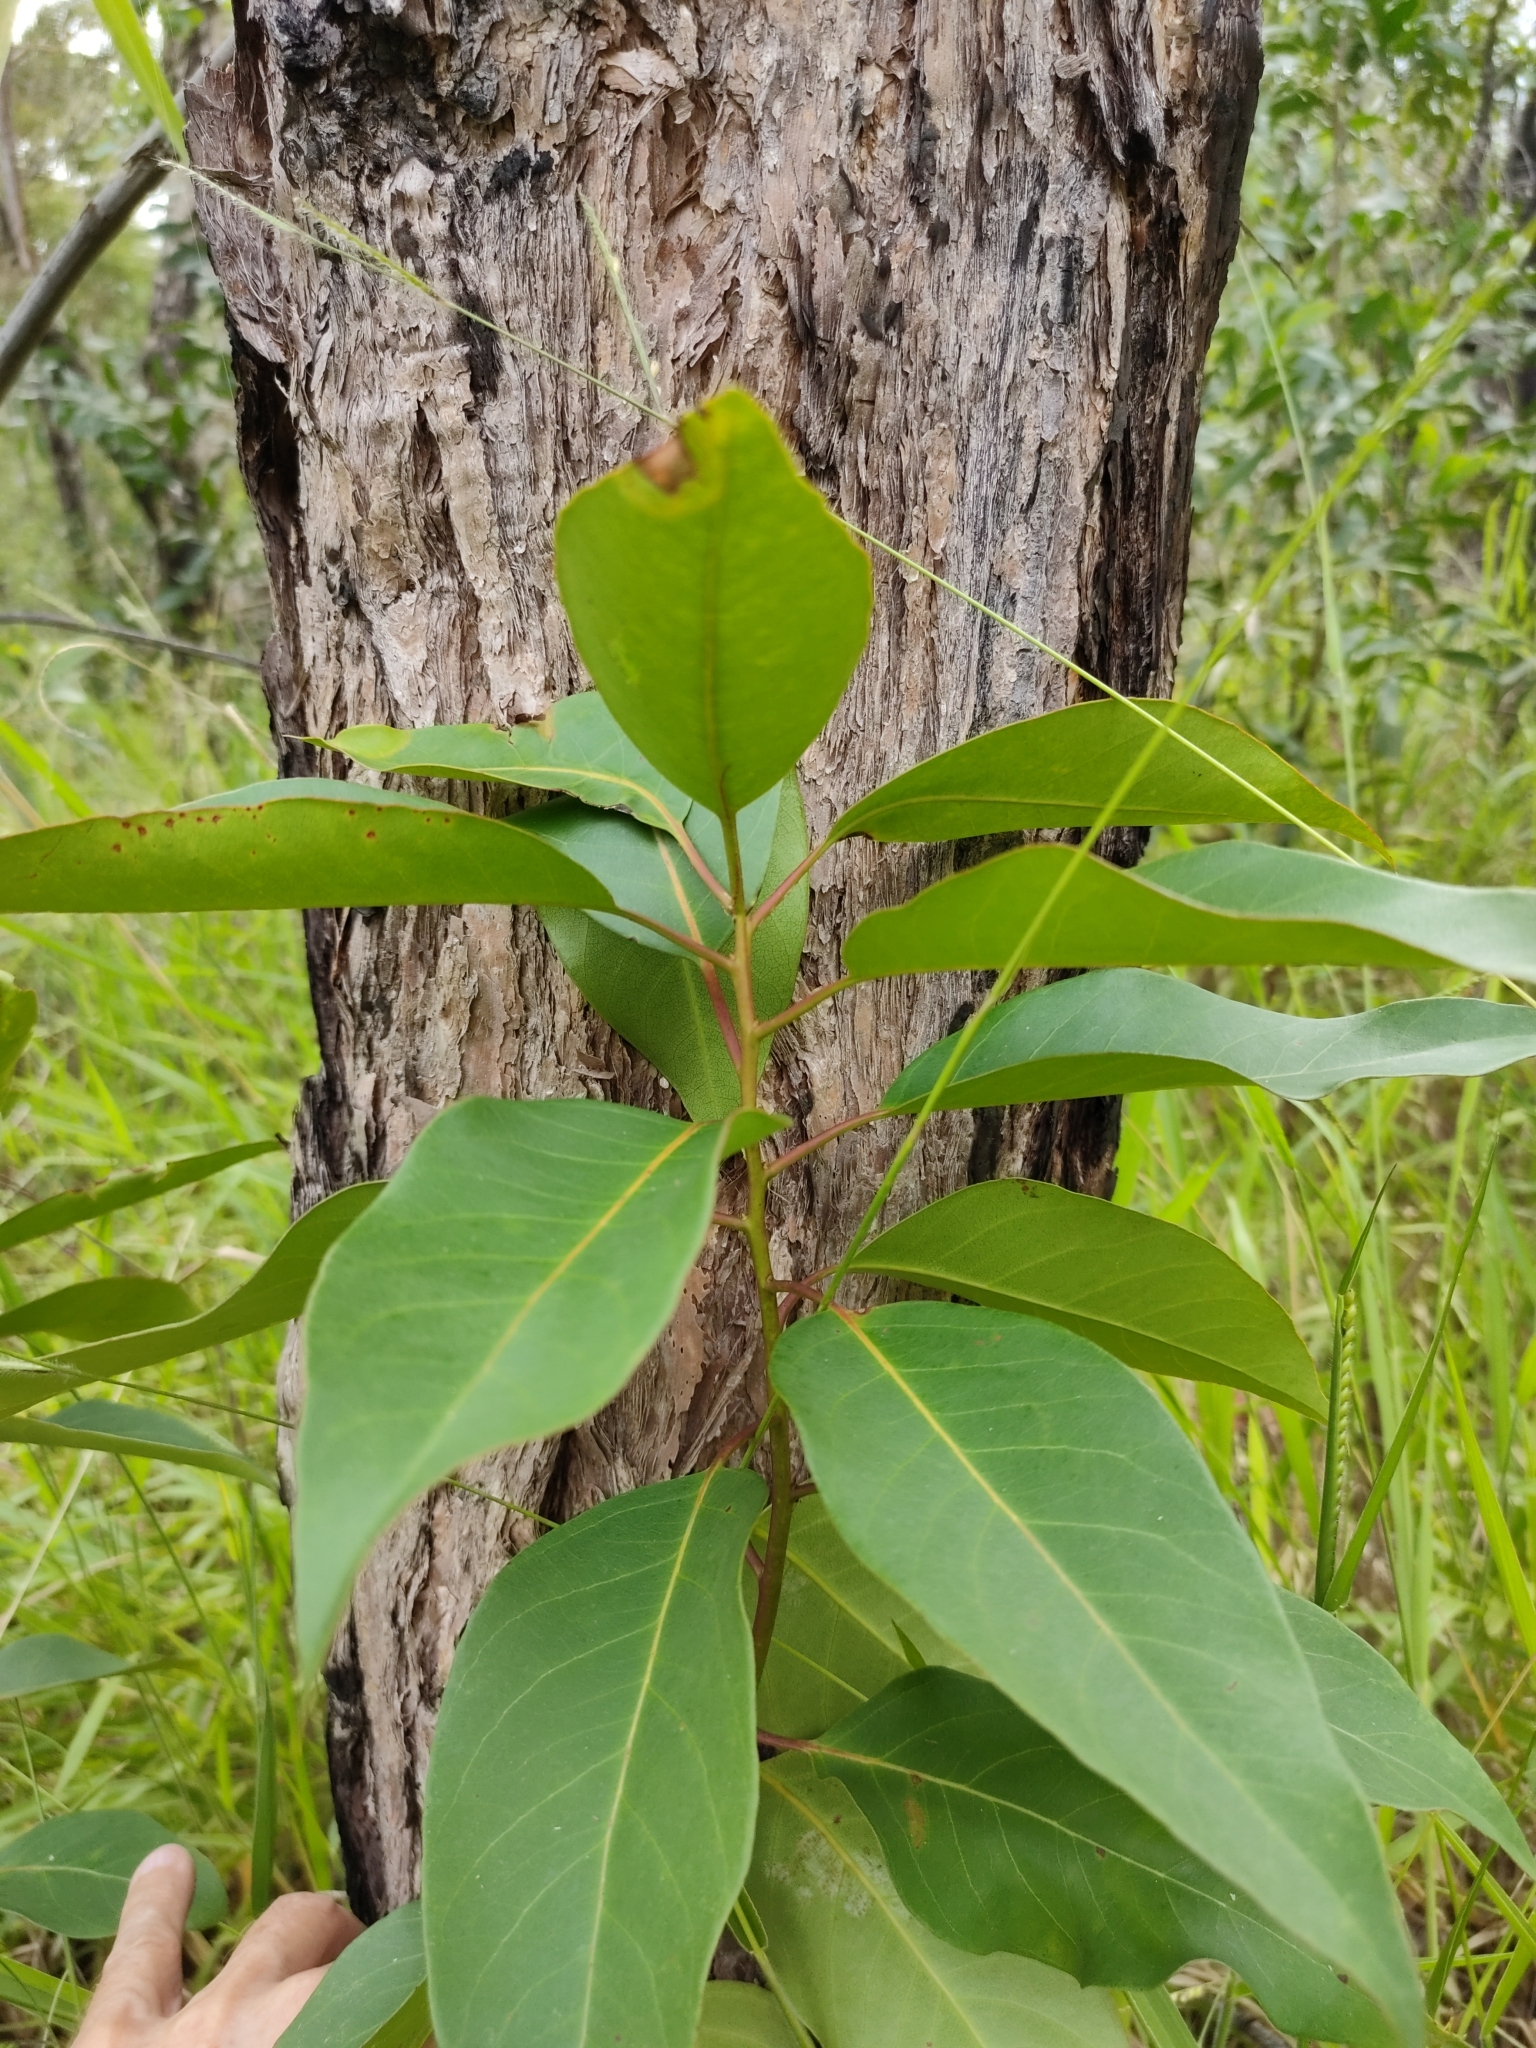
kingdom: Plantae
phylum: Tracheophyta
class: Magnoliopsida
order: Myrtales
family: Myrtaceae
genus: Lophostemon
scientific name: Lophostemon suaveolens
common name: Paperbark-mahogany
